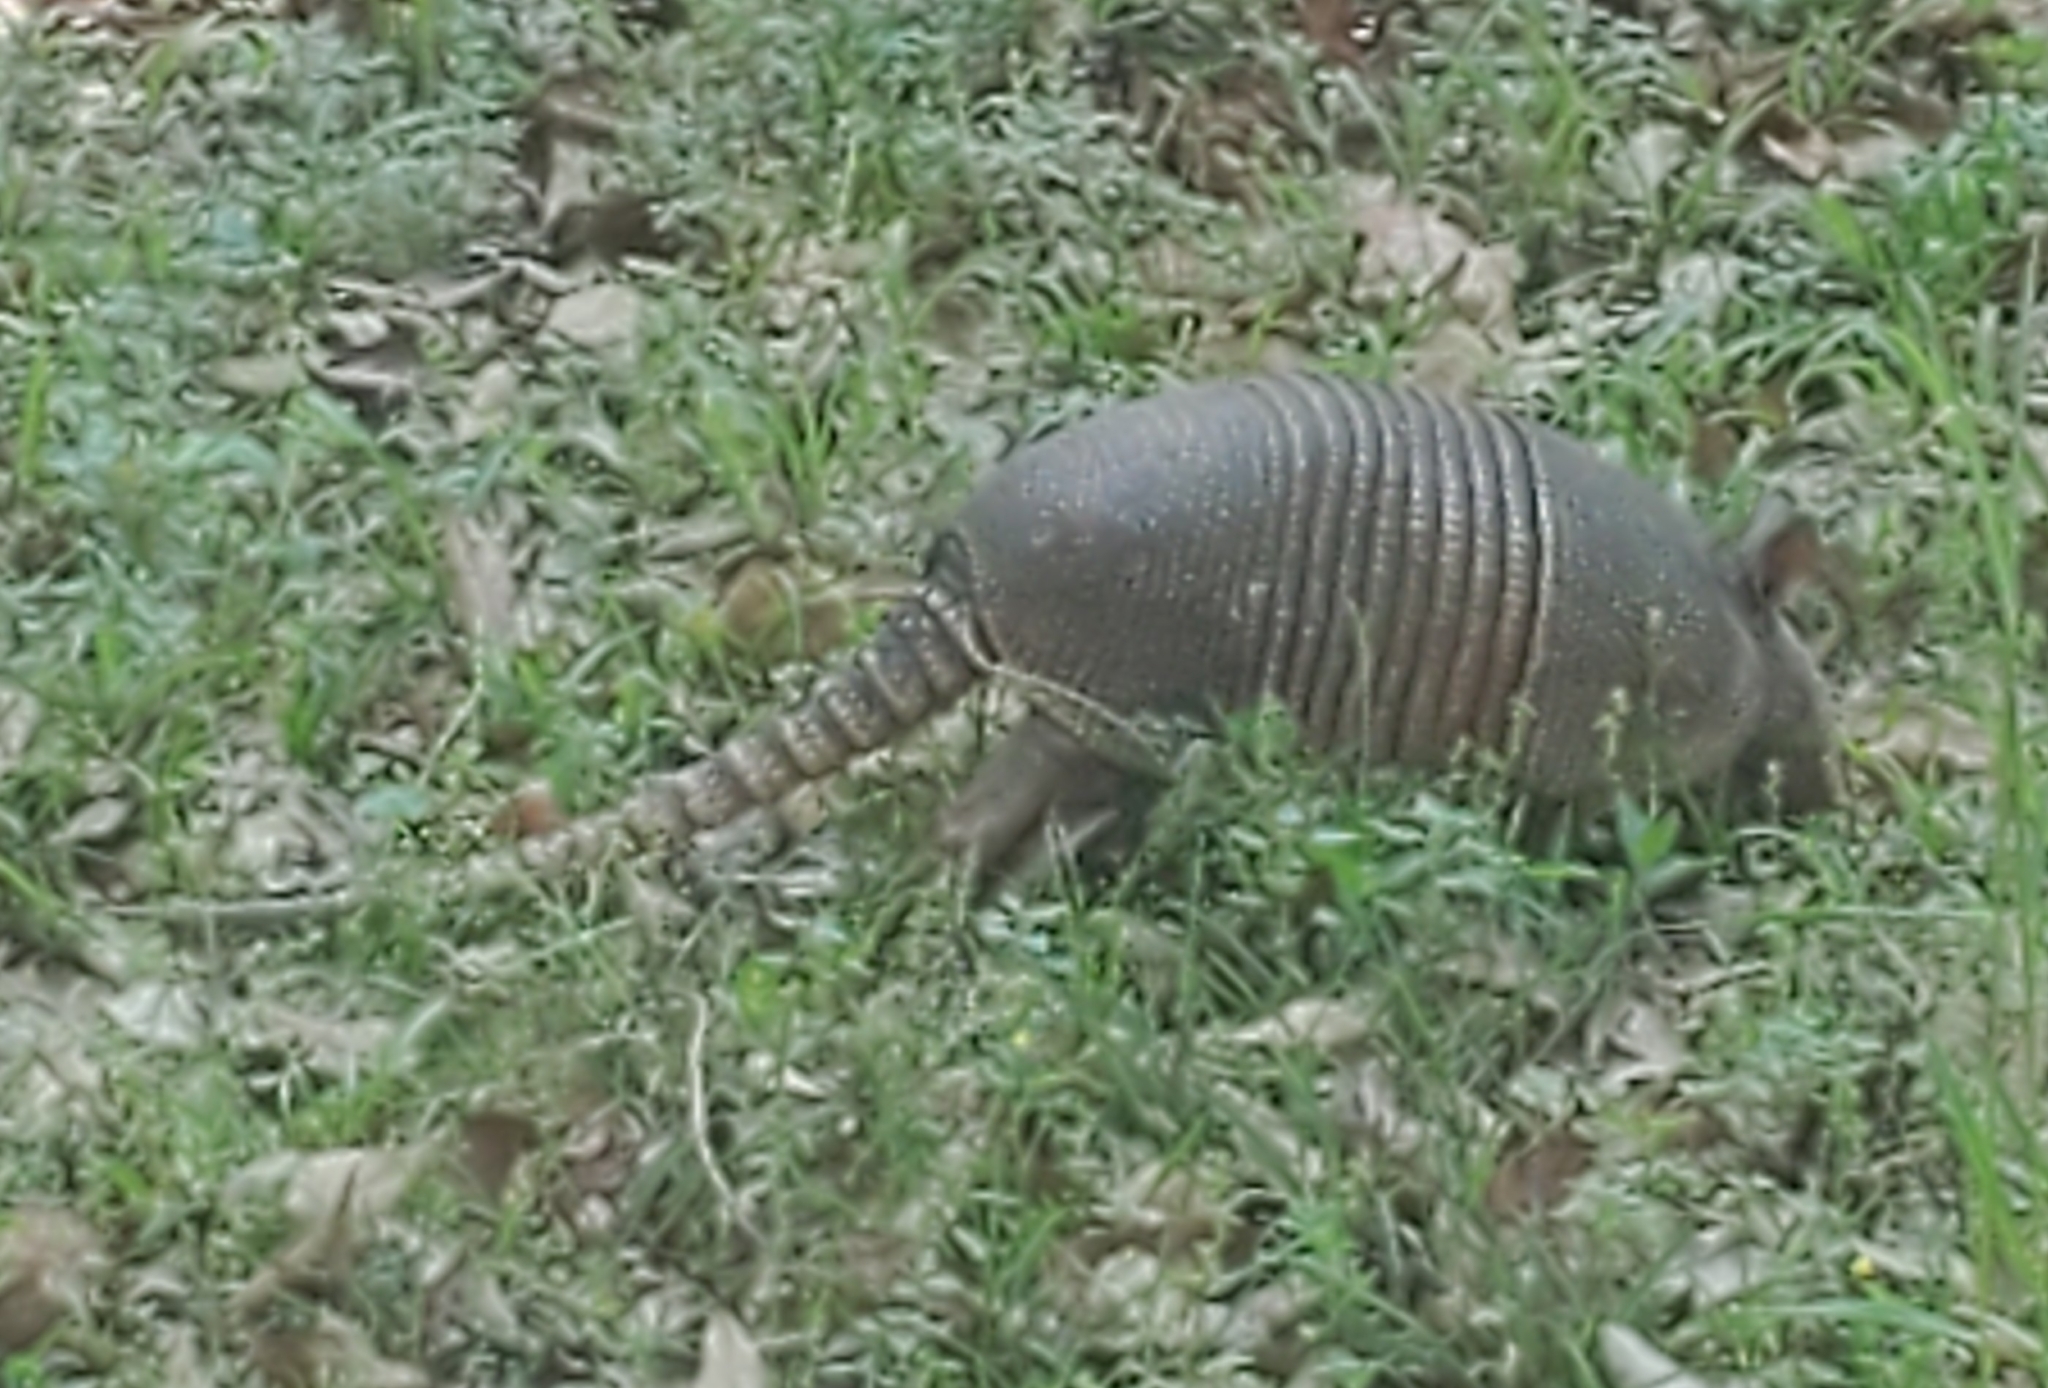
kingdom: Animalia
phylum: Chordata
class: Mammalia
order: Cingulata
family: Dasypodidae
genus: Dasypus
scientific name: Dasypus novemcinctus
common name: Nine-banded armadillo
